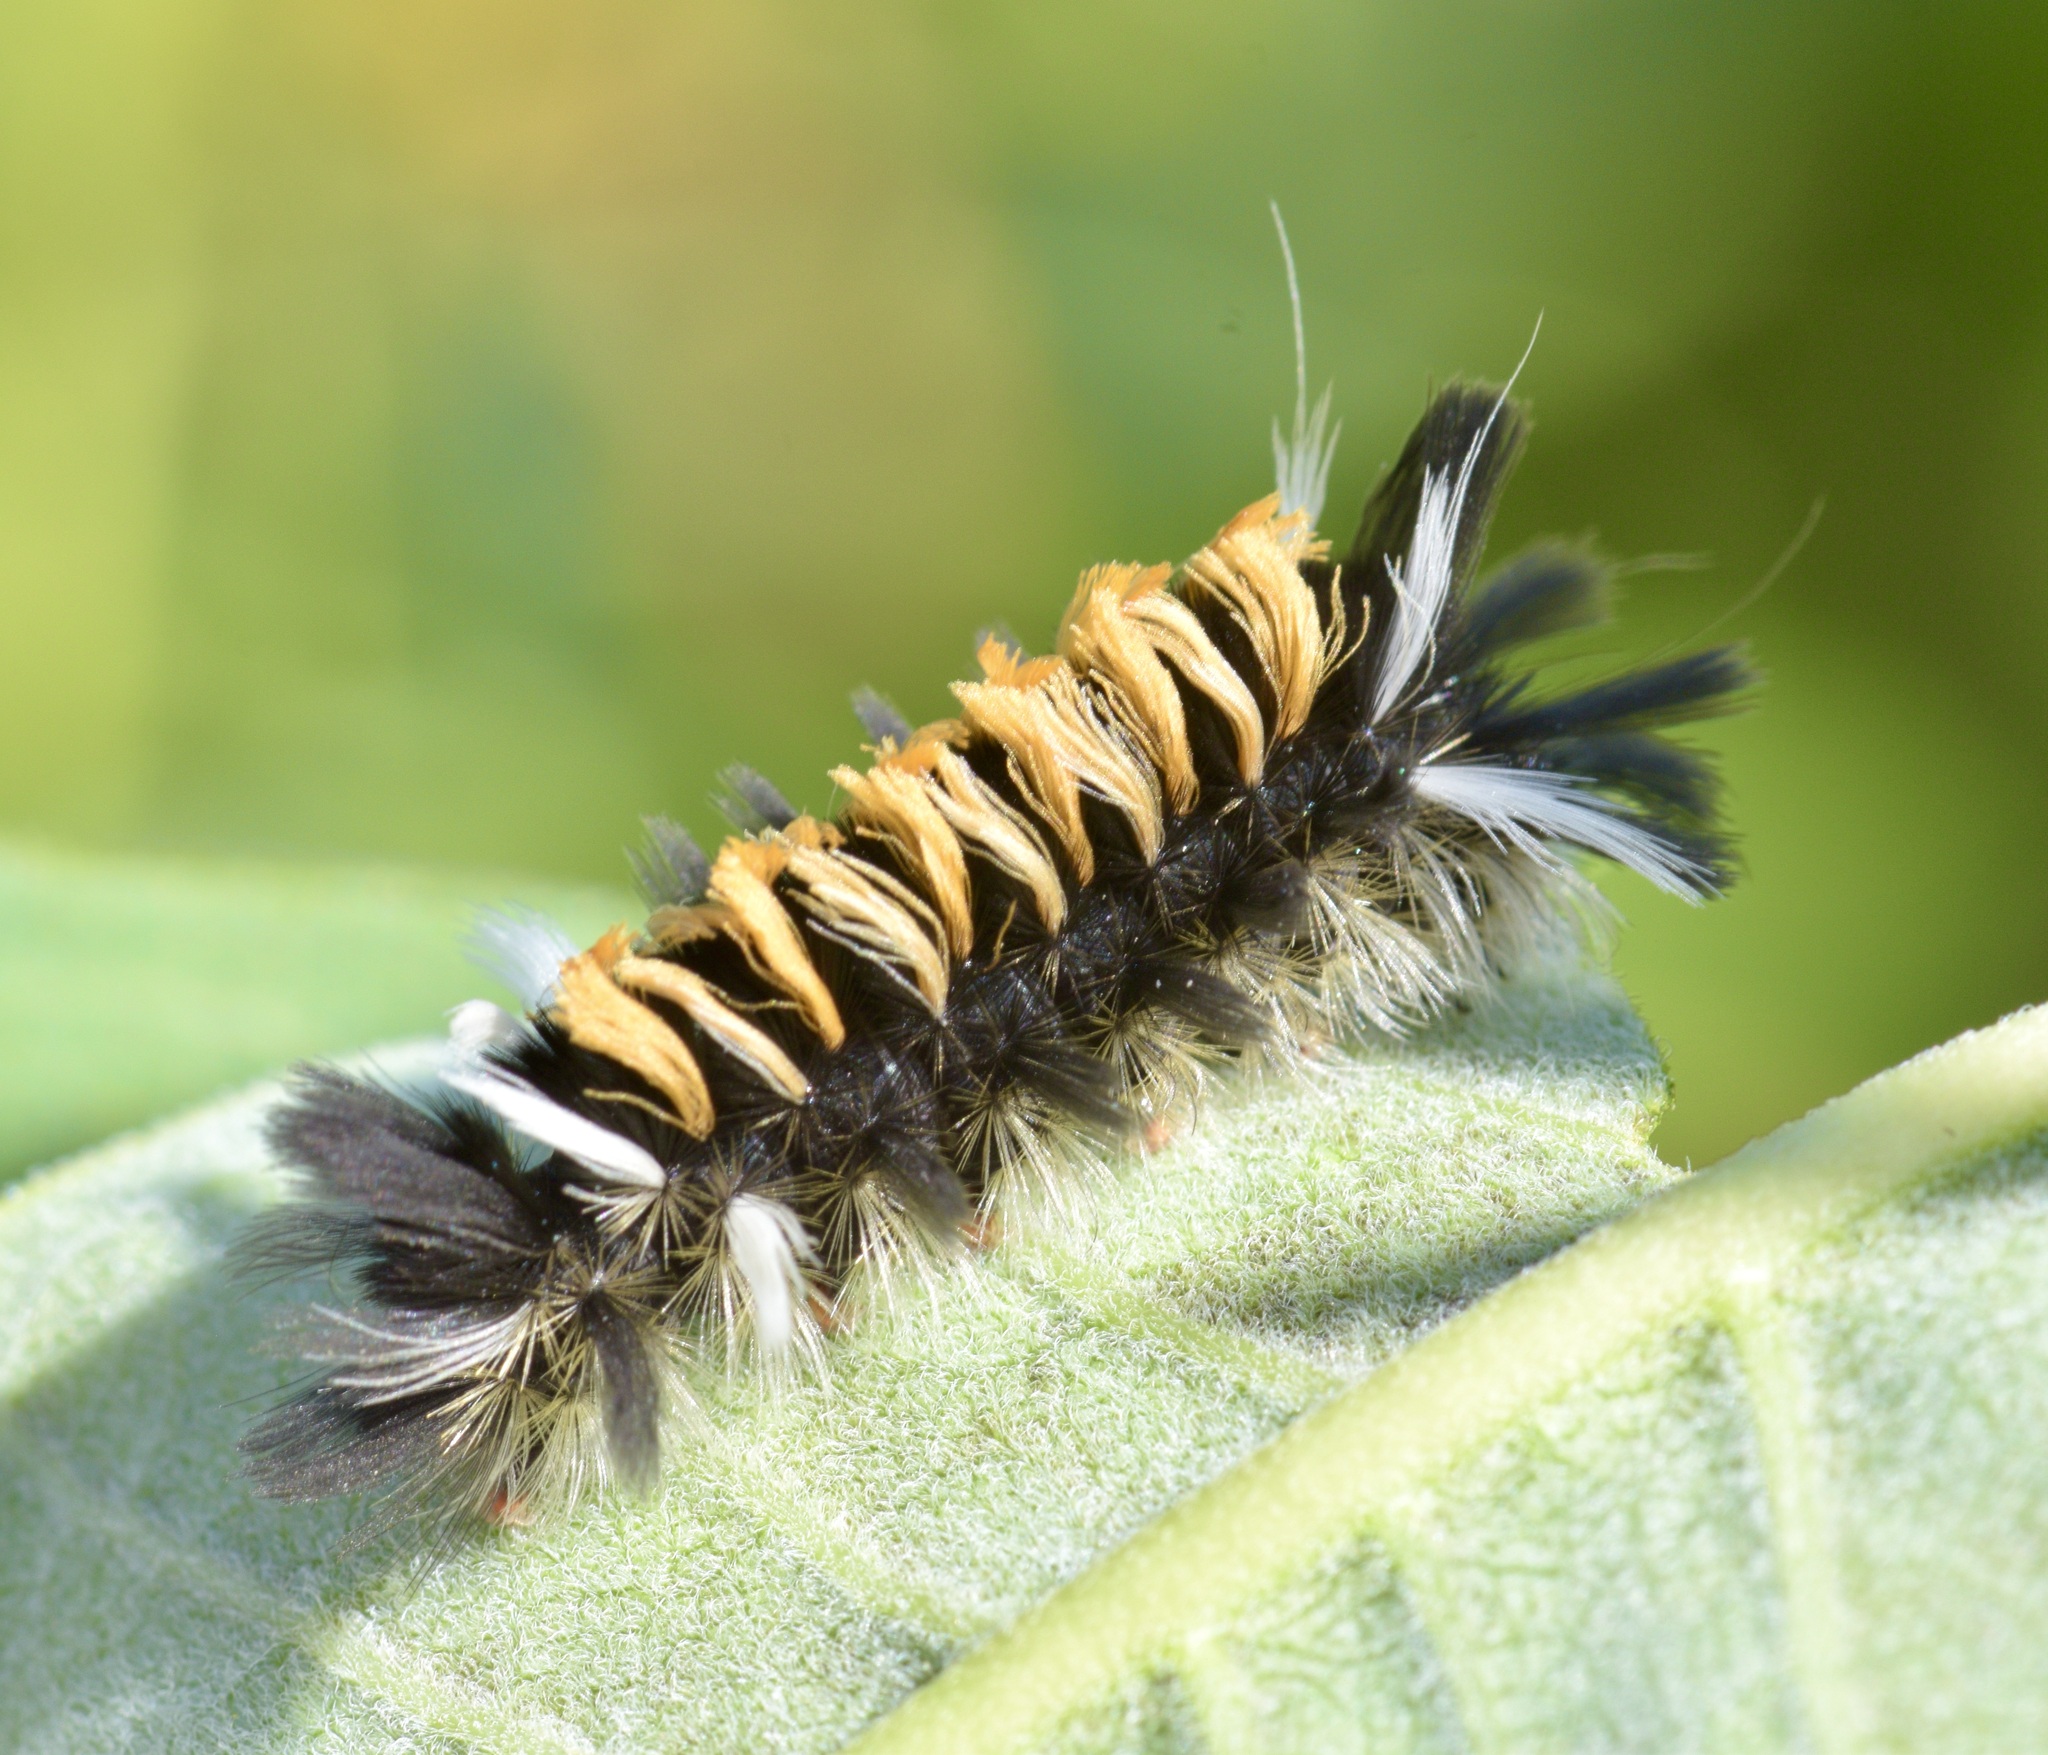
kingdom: Animalia
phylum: Arthropoda
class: Insecta
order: Lepidoptera
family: Erebidae
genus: Euchaetes
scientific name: Euchaetes egle
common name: Milkweed tussock moth
